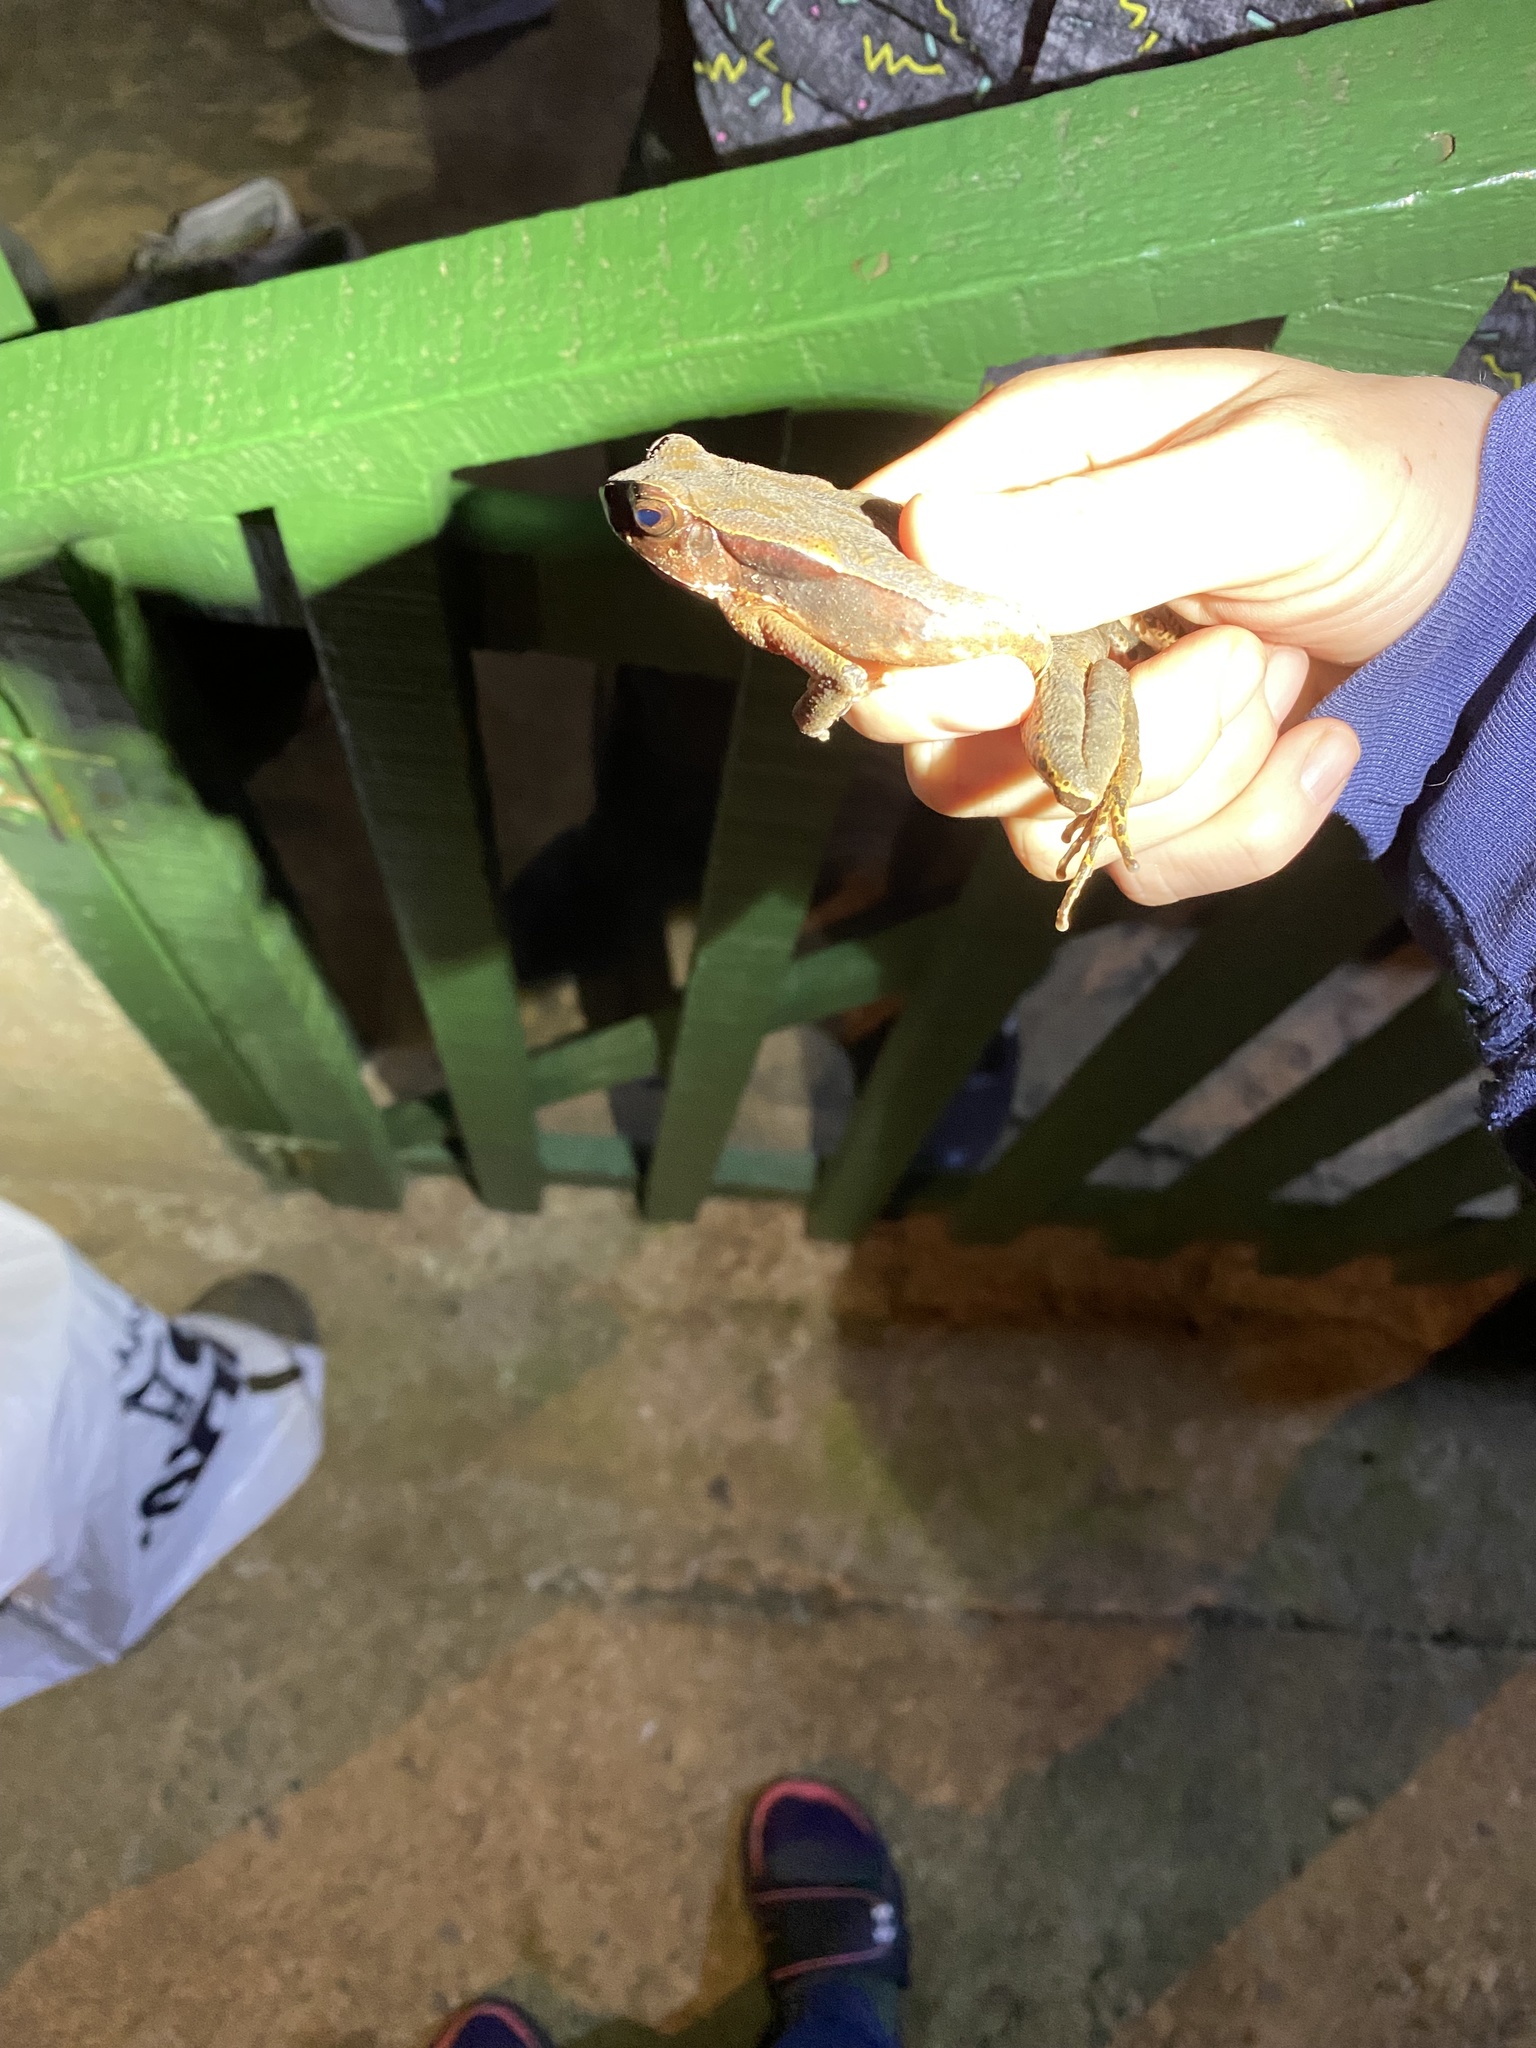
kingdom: Animalia
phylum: Chordata
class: Amphibia
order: Anura
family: Bufonidae
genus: Rhaebo
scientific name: Rhaebo haematiticus
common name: Truando toad
